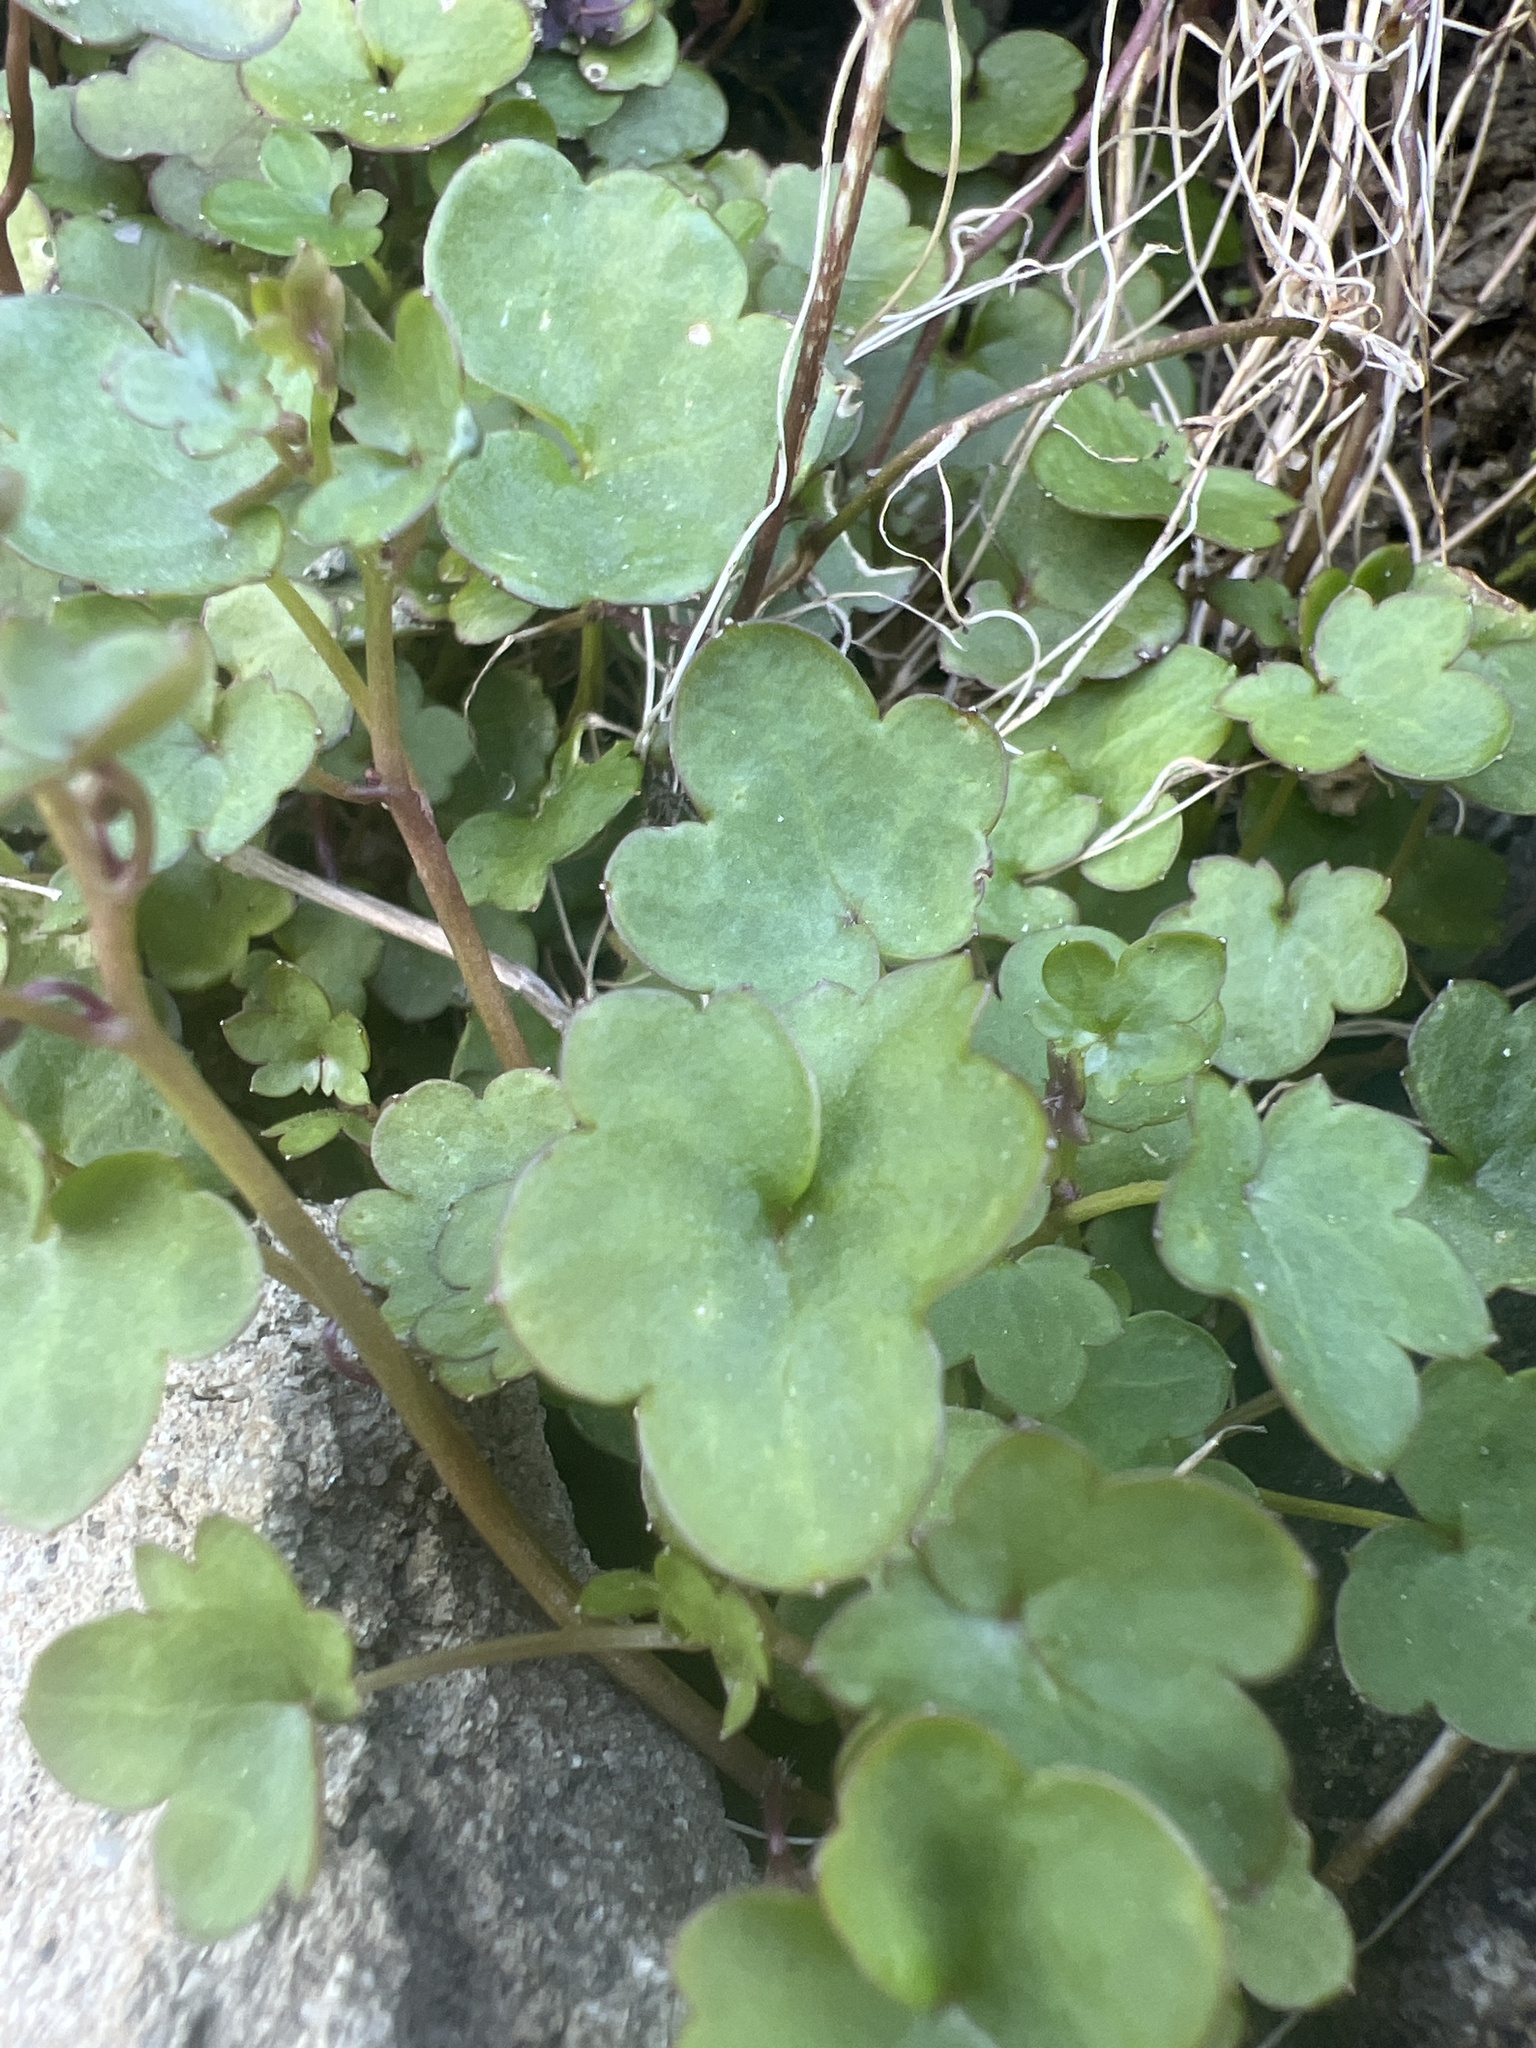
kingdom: Plantae
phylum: Tracheophyta
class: Magnoliopsida
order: Lamiales
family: Plantaginaceae
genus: Cymbalaria
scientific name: Cymbalaria muralis
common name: Ivy-leaved toadflax
